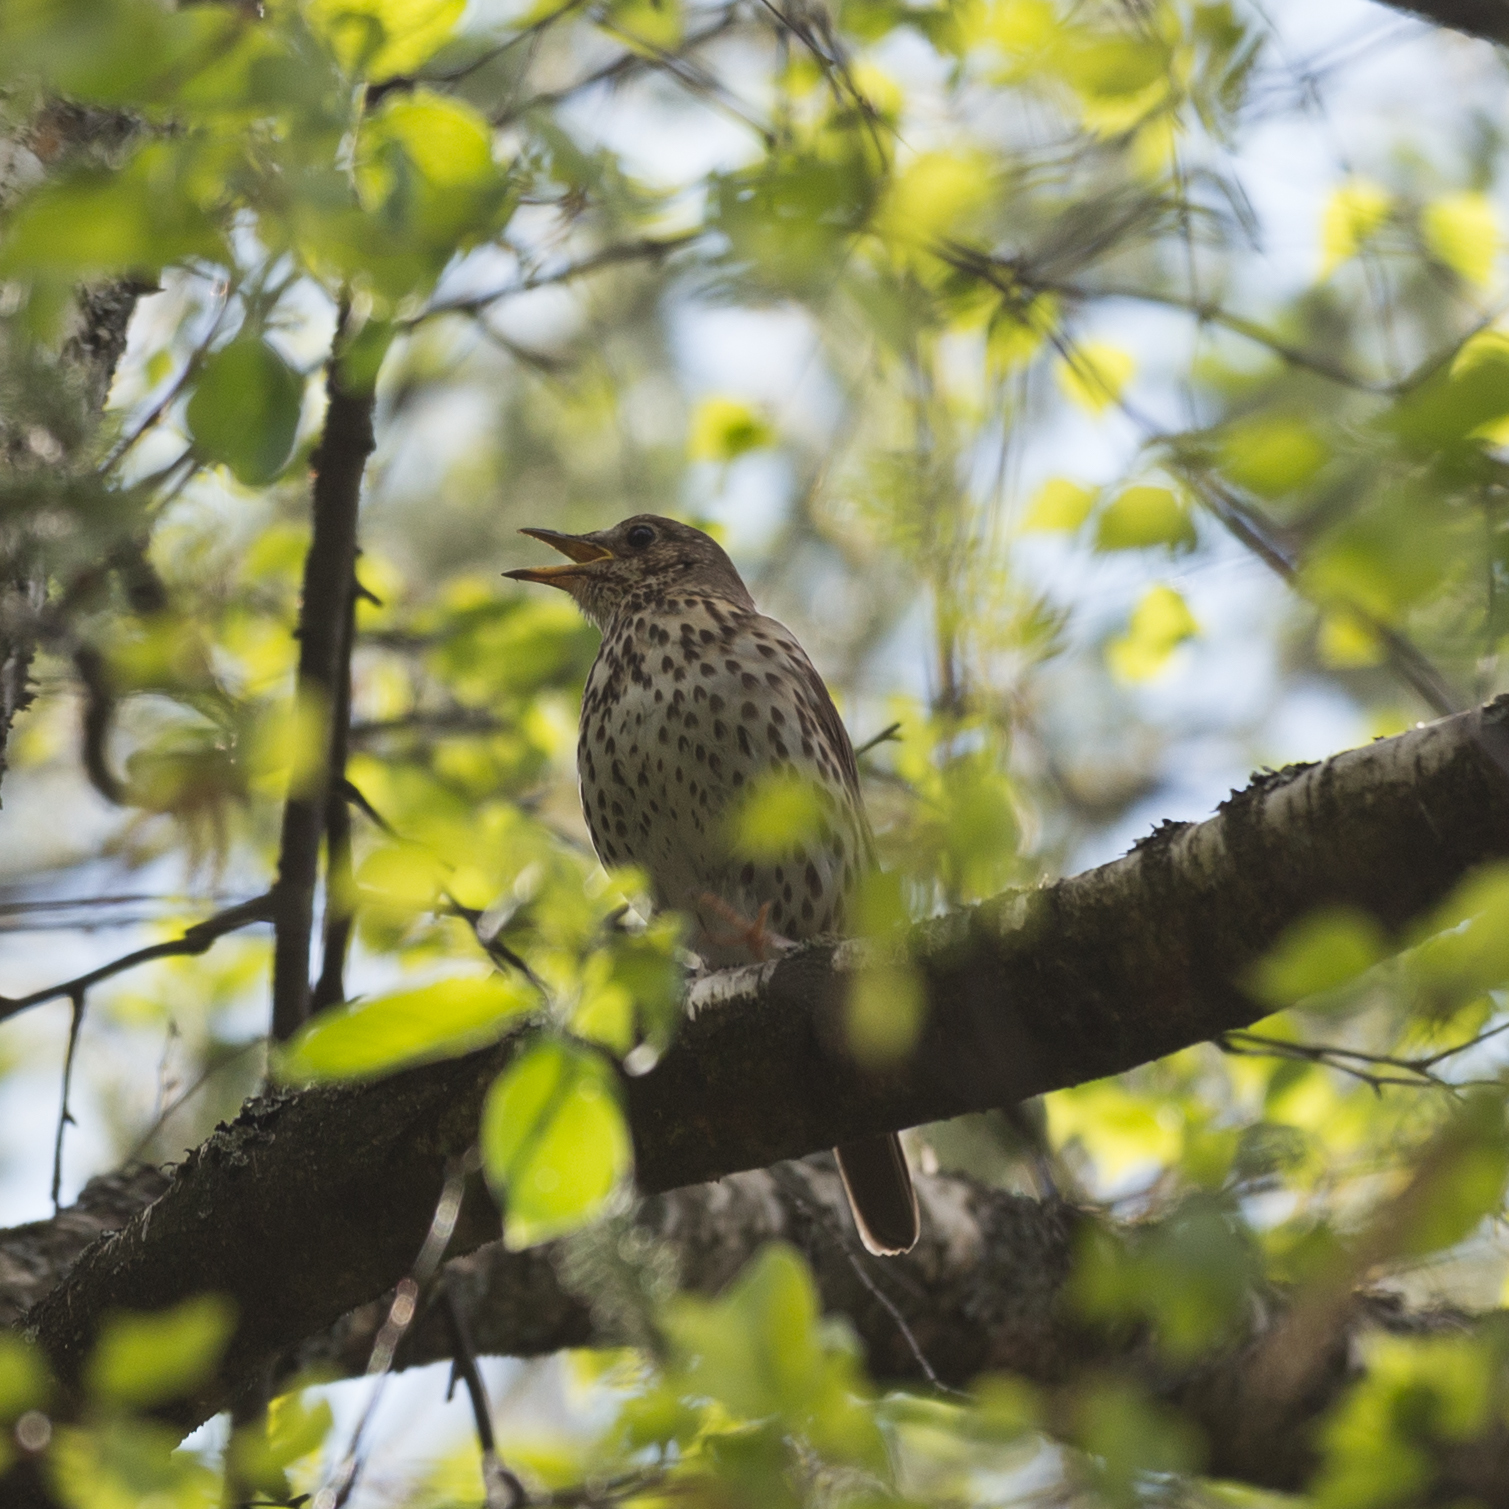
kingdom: Animalia
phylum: Chordata
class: Aves
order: Passeriformes
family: Turdidae
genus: Turdus
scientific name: Turdus philomelos
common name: Song thrush
